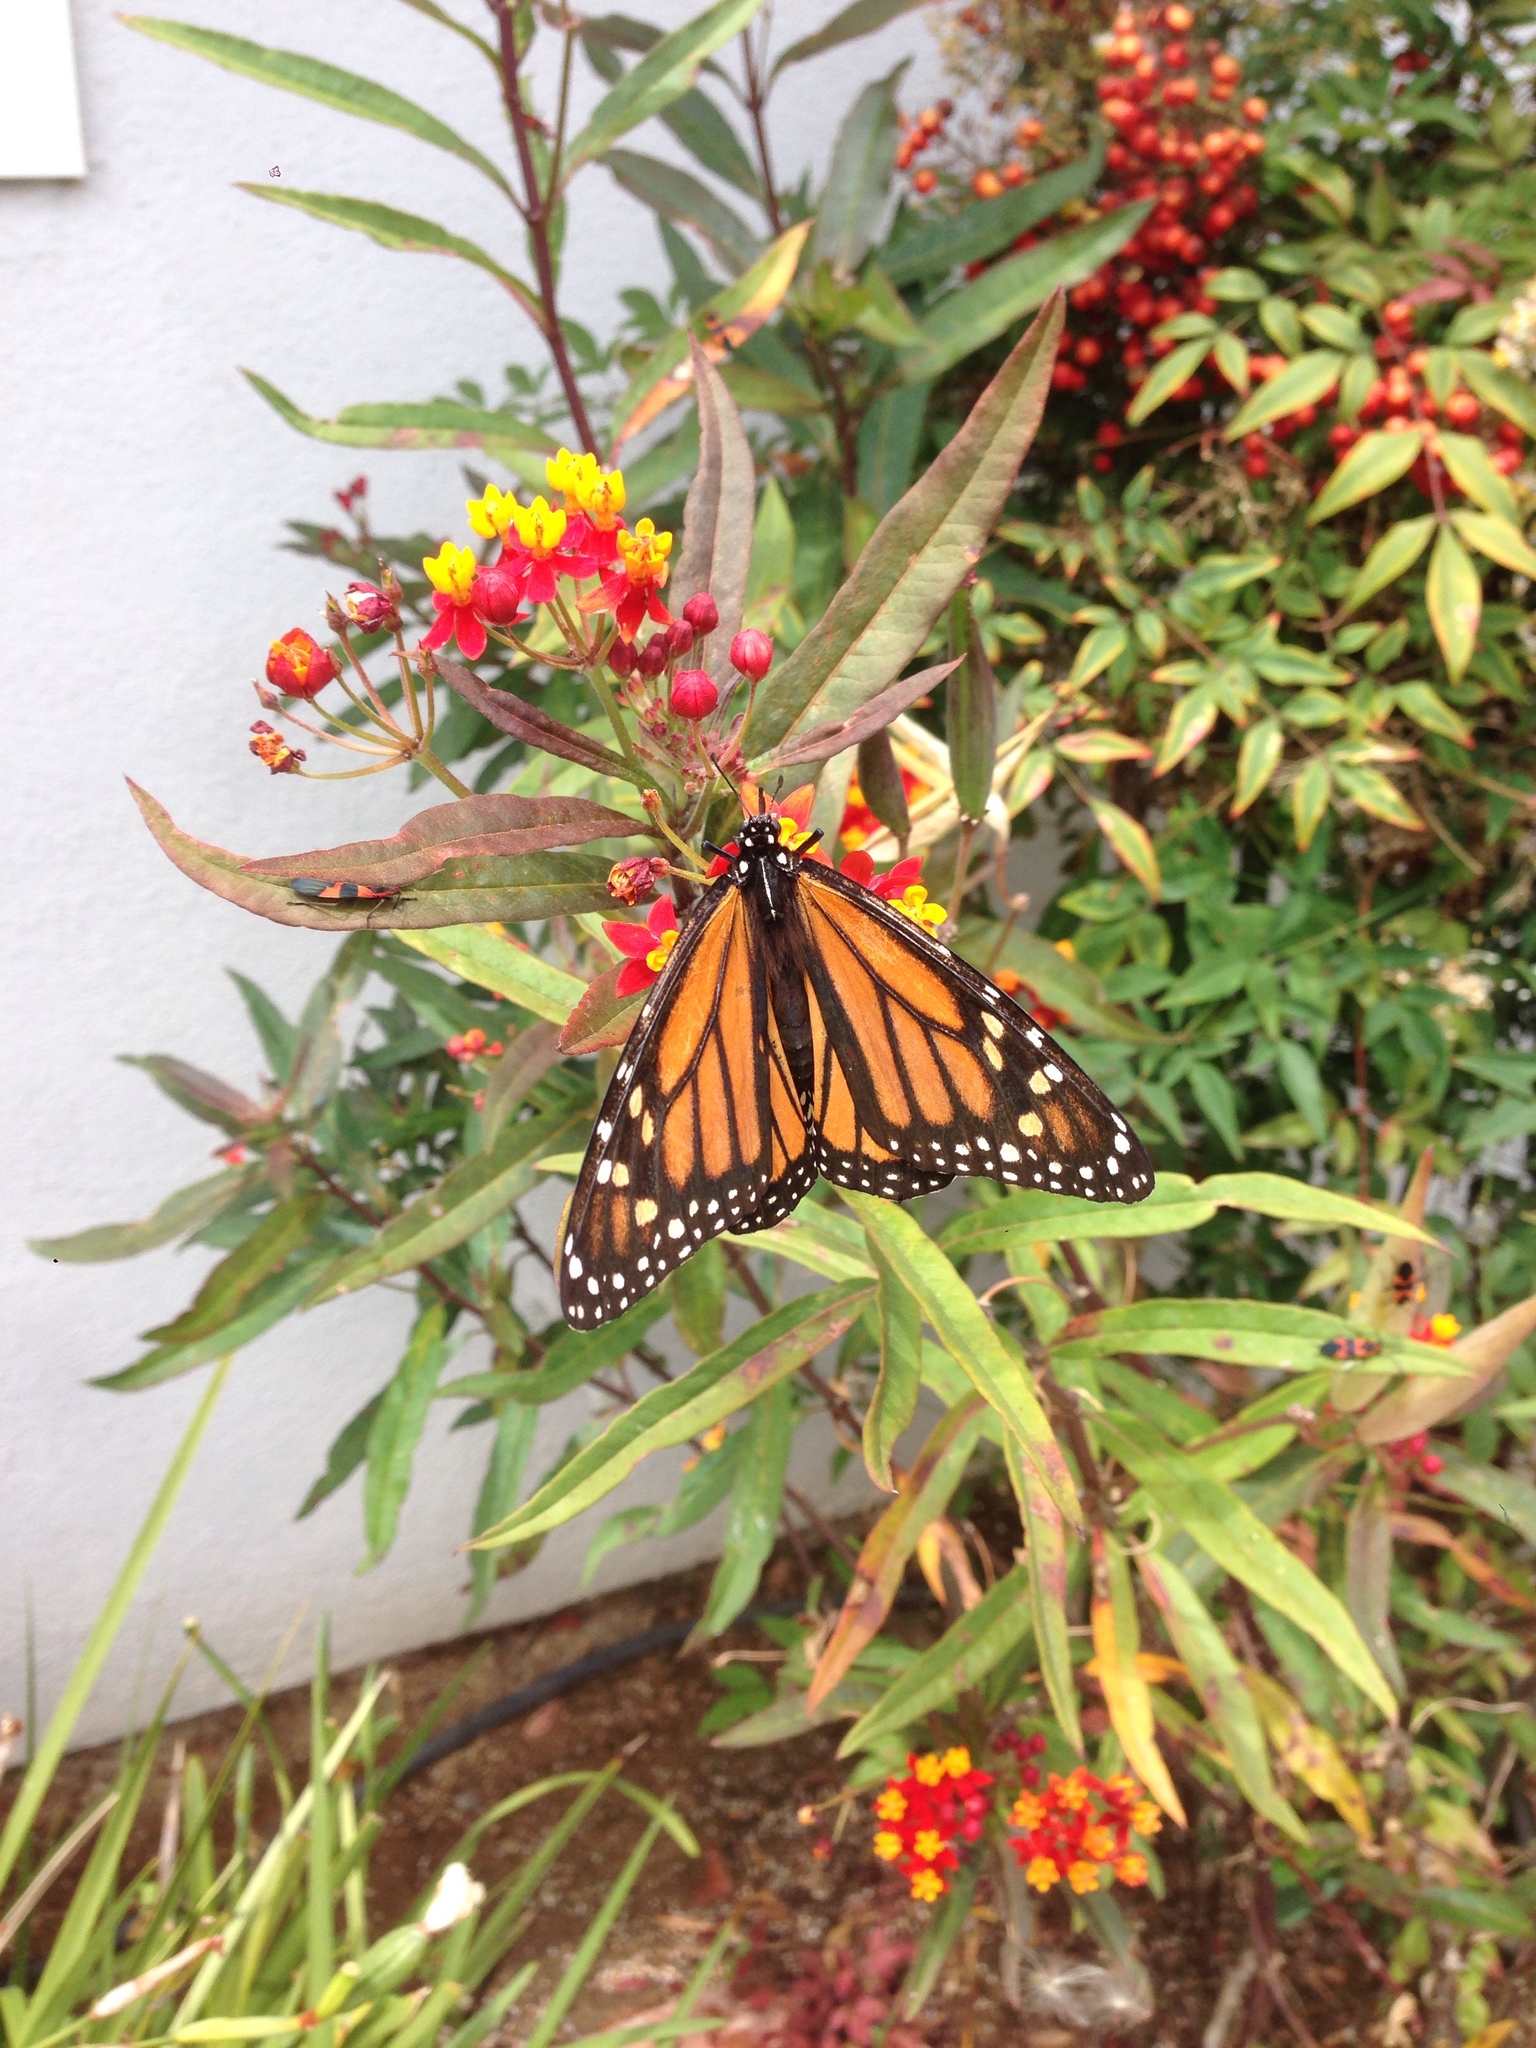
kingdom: Animalia
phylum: Arthropoda
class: Insecta
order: Lepidoptera
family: Nymphalidae
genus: Danaus
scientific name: Danaus plexippus
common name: Monarch
